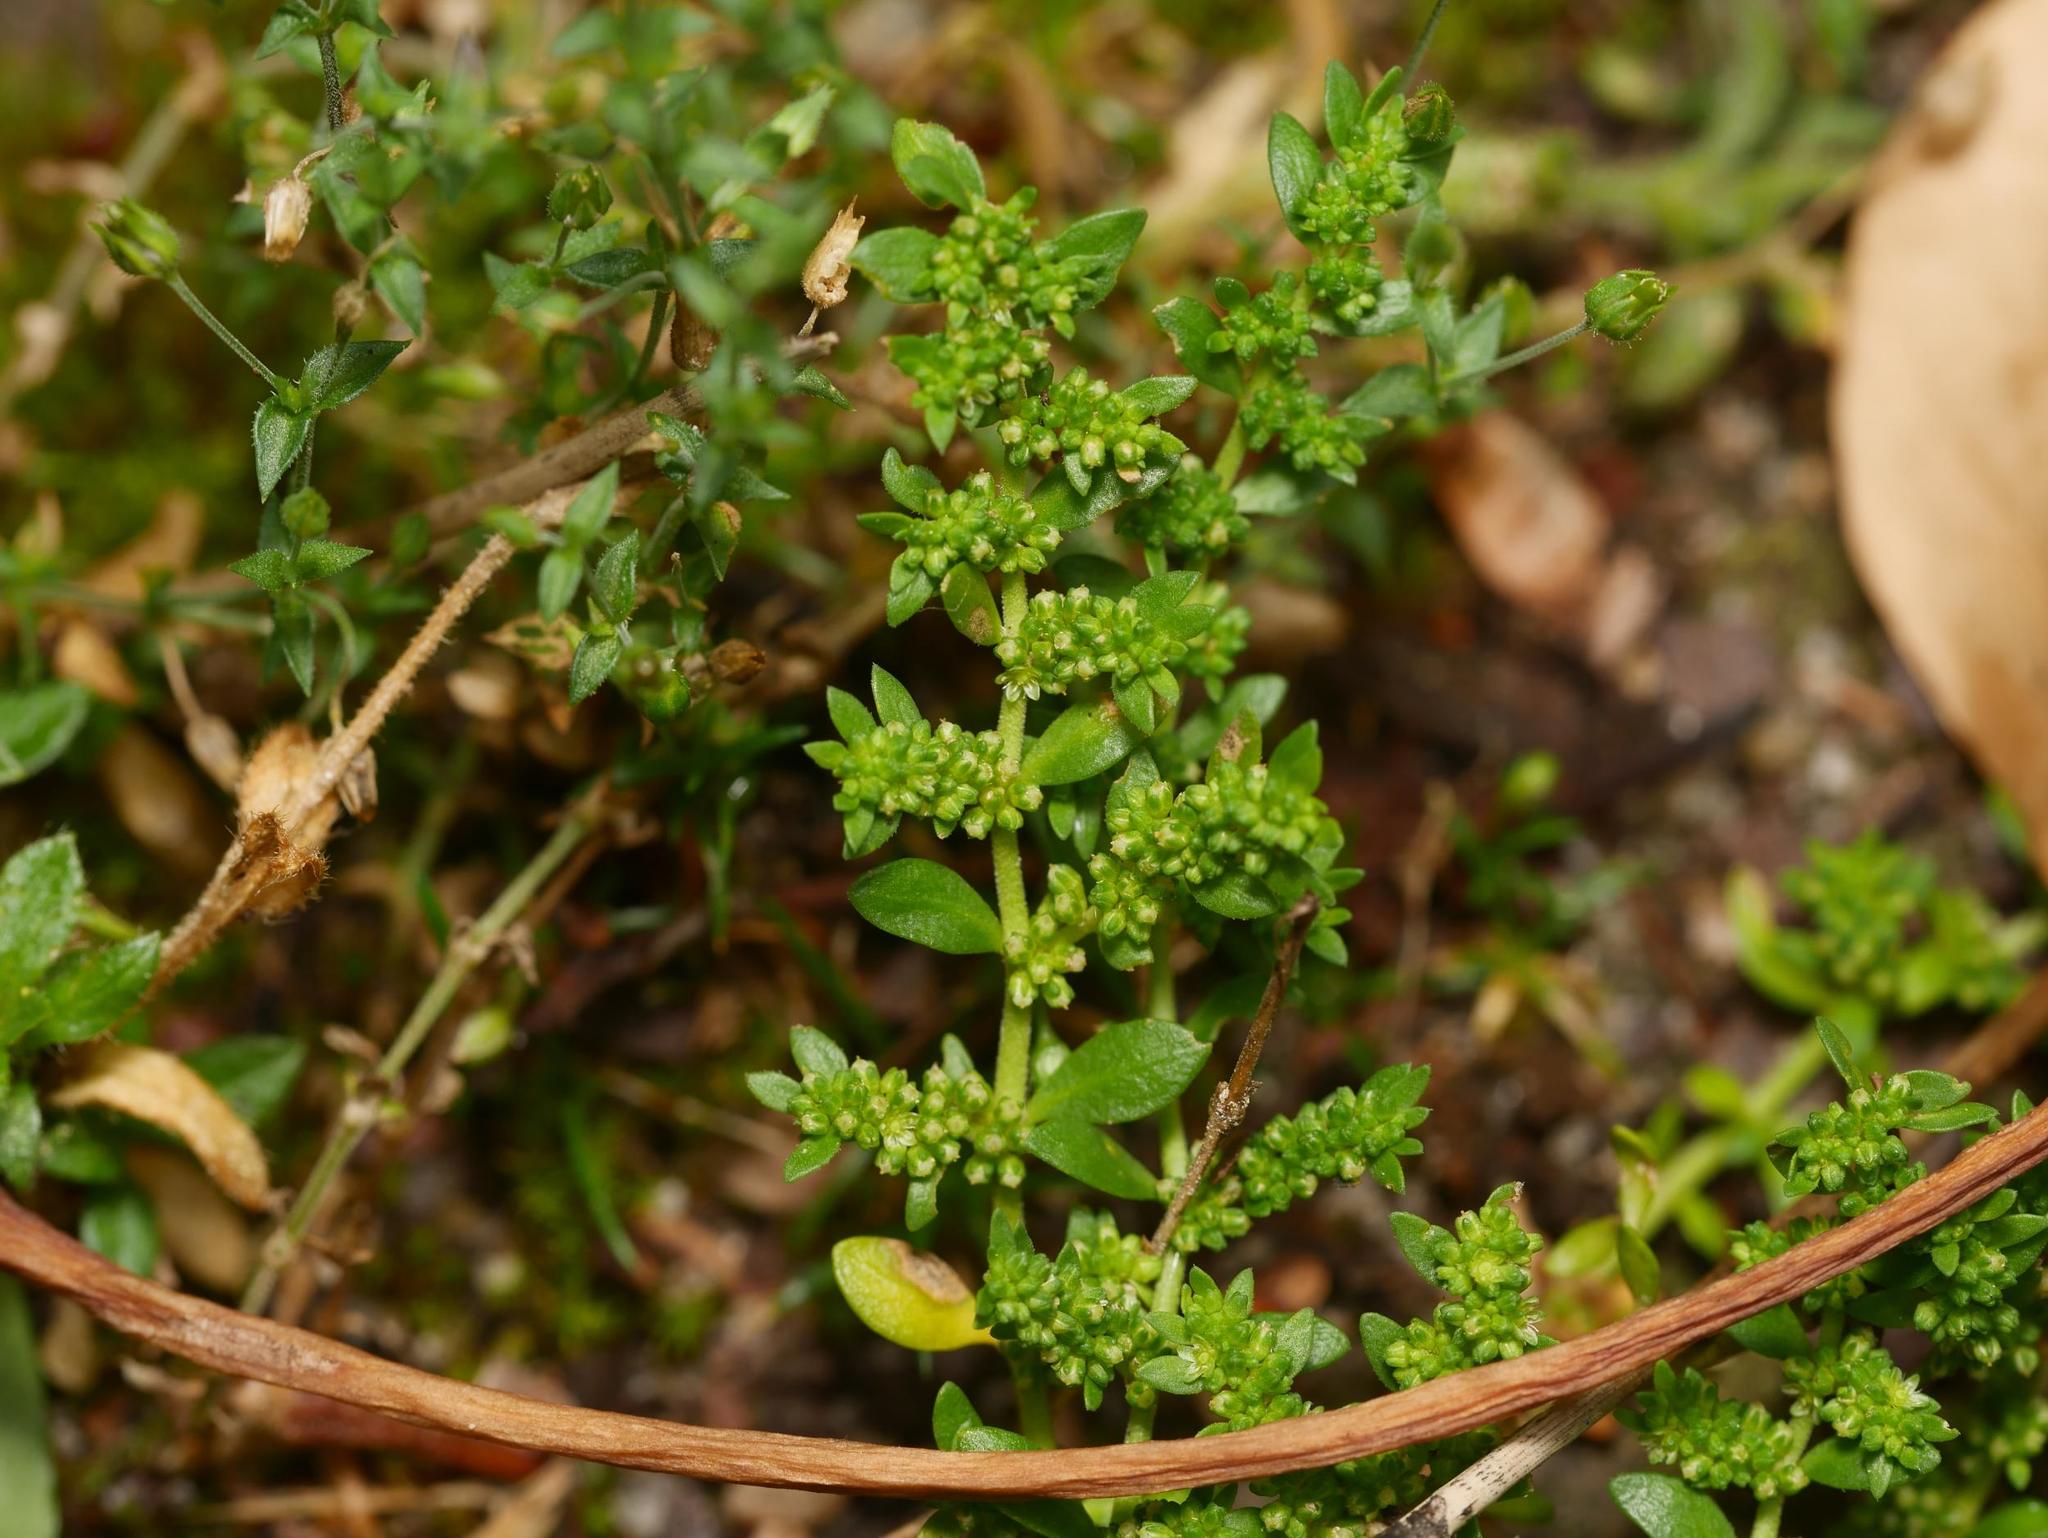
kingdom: Plantae
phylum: Tracheophyta
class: Magnoliopsida
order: Caryophyllales
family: Caryophyllaceae
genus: Herniaria
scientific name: Herniaria glabra
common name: Smooth rupturewort
